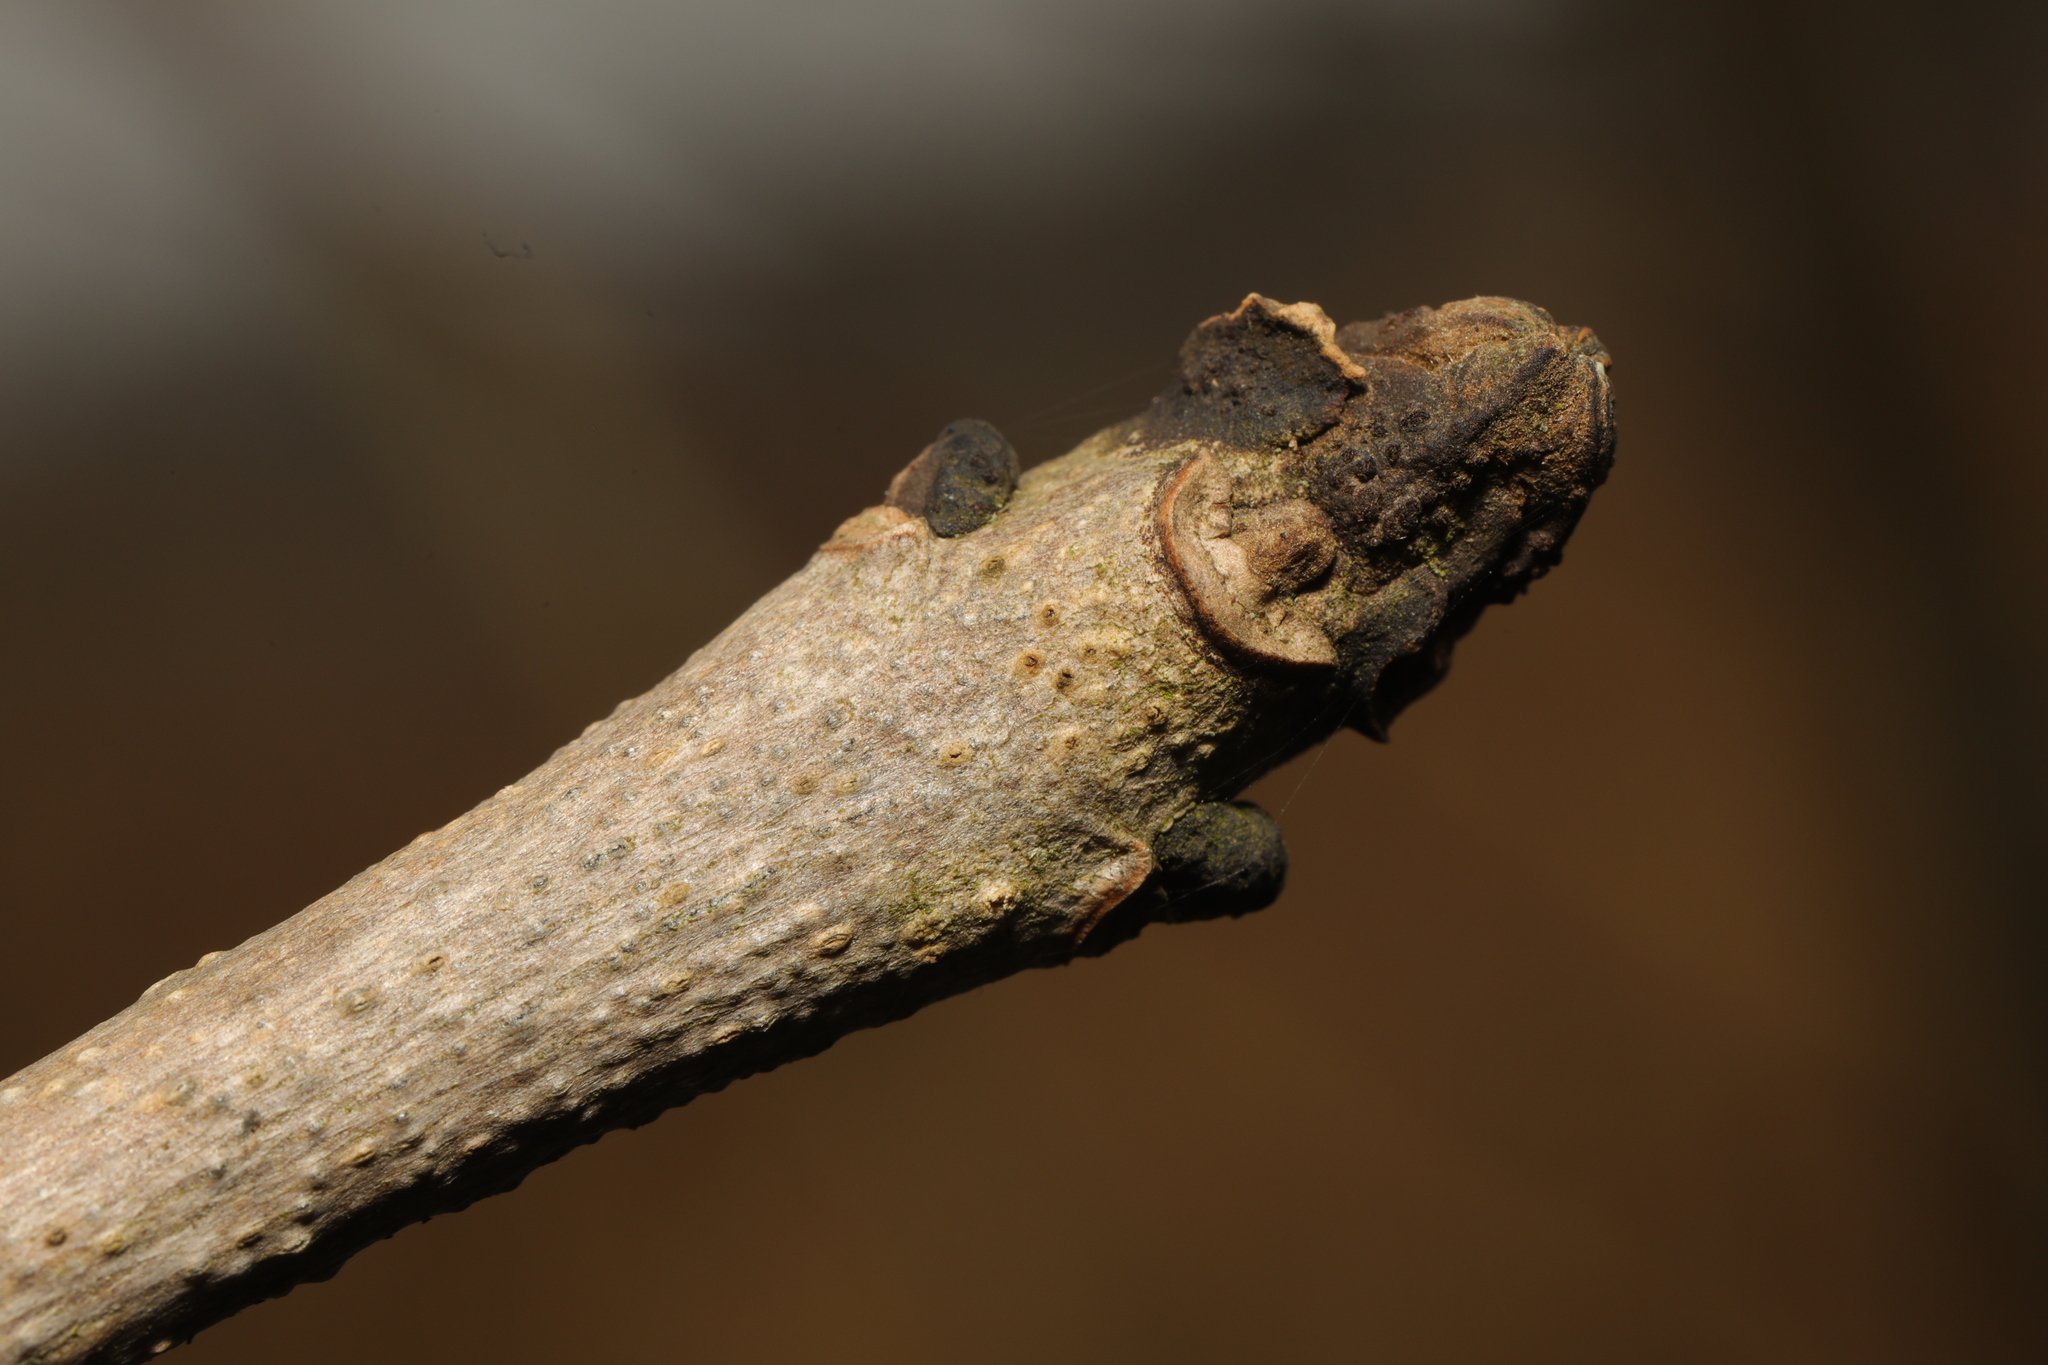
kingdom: Plantae
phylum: Tracheophyta
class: Magnoliopsida
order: Lamiales
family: Oleaceae
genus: Fraxinus
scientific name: Fraxinus excelsior
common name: European ash
